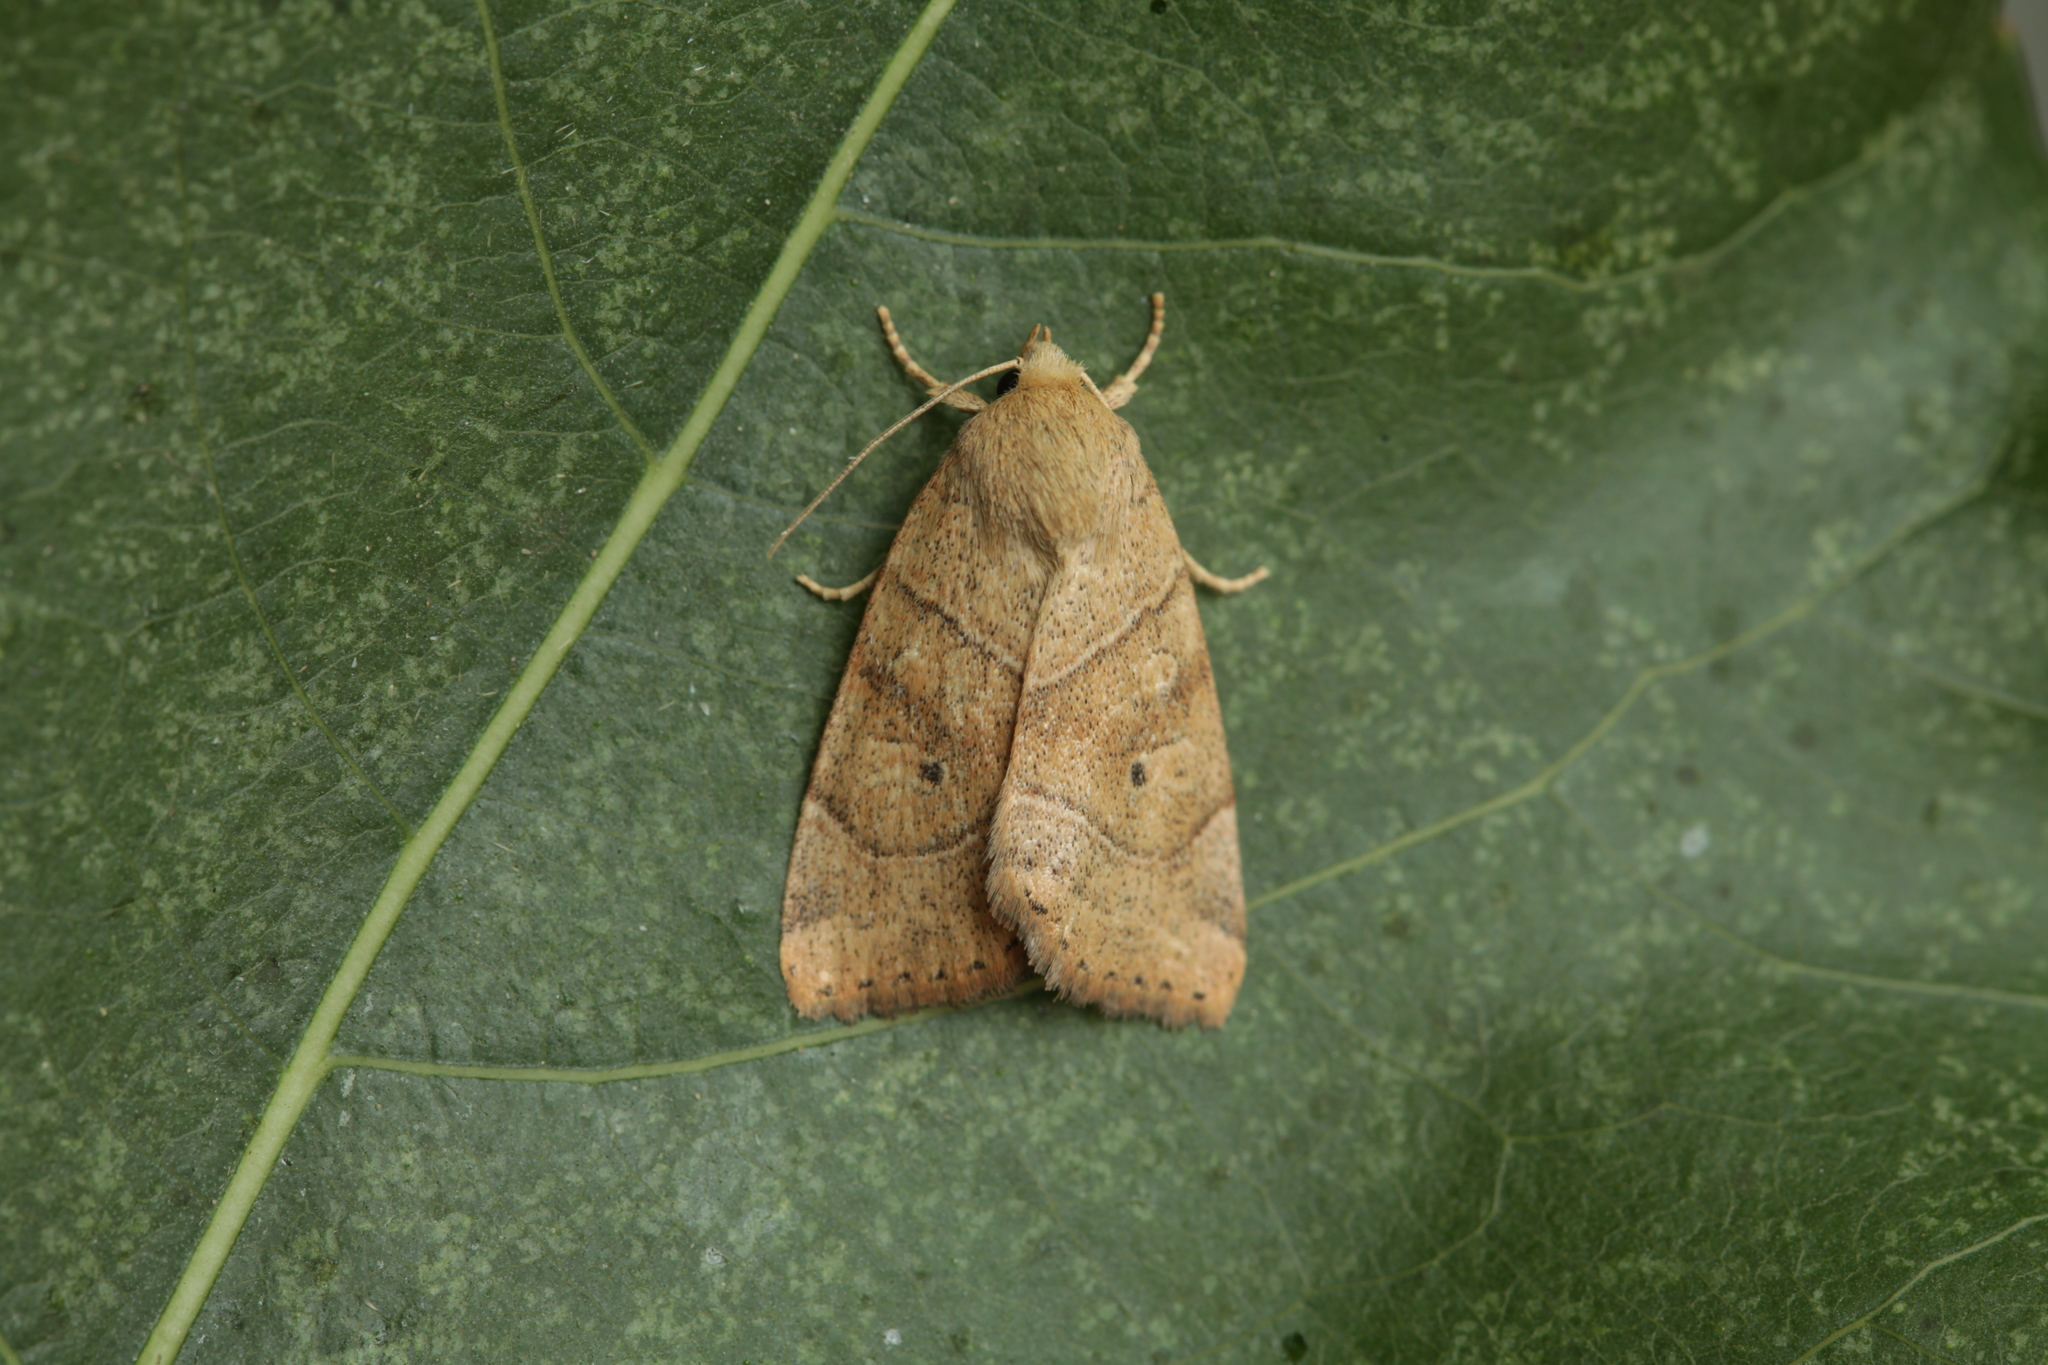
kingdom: Animalia
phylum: Arthropoda
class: Insecta
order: Lepidoptera
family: Noctuidae
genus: Cosmia
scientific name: Cosmia trapezina
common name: Dun-bar
